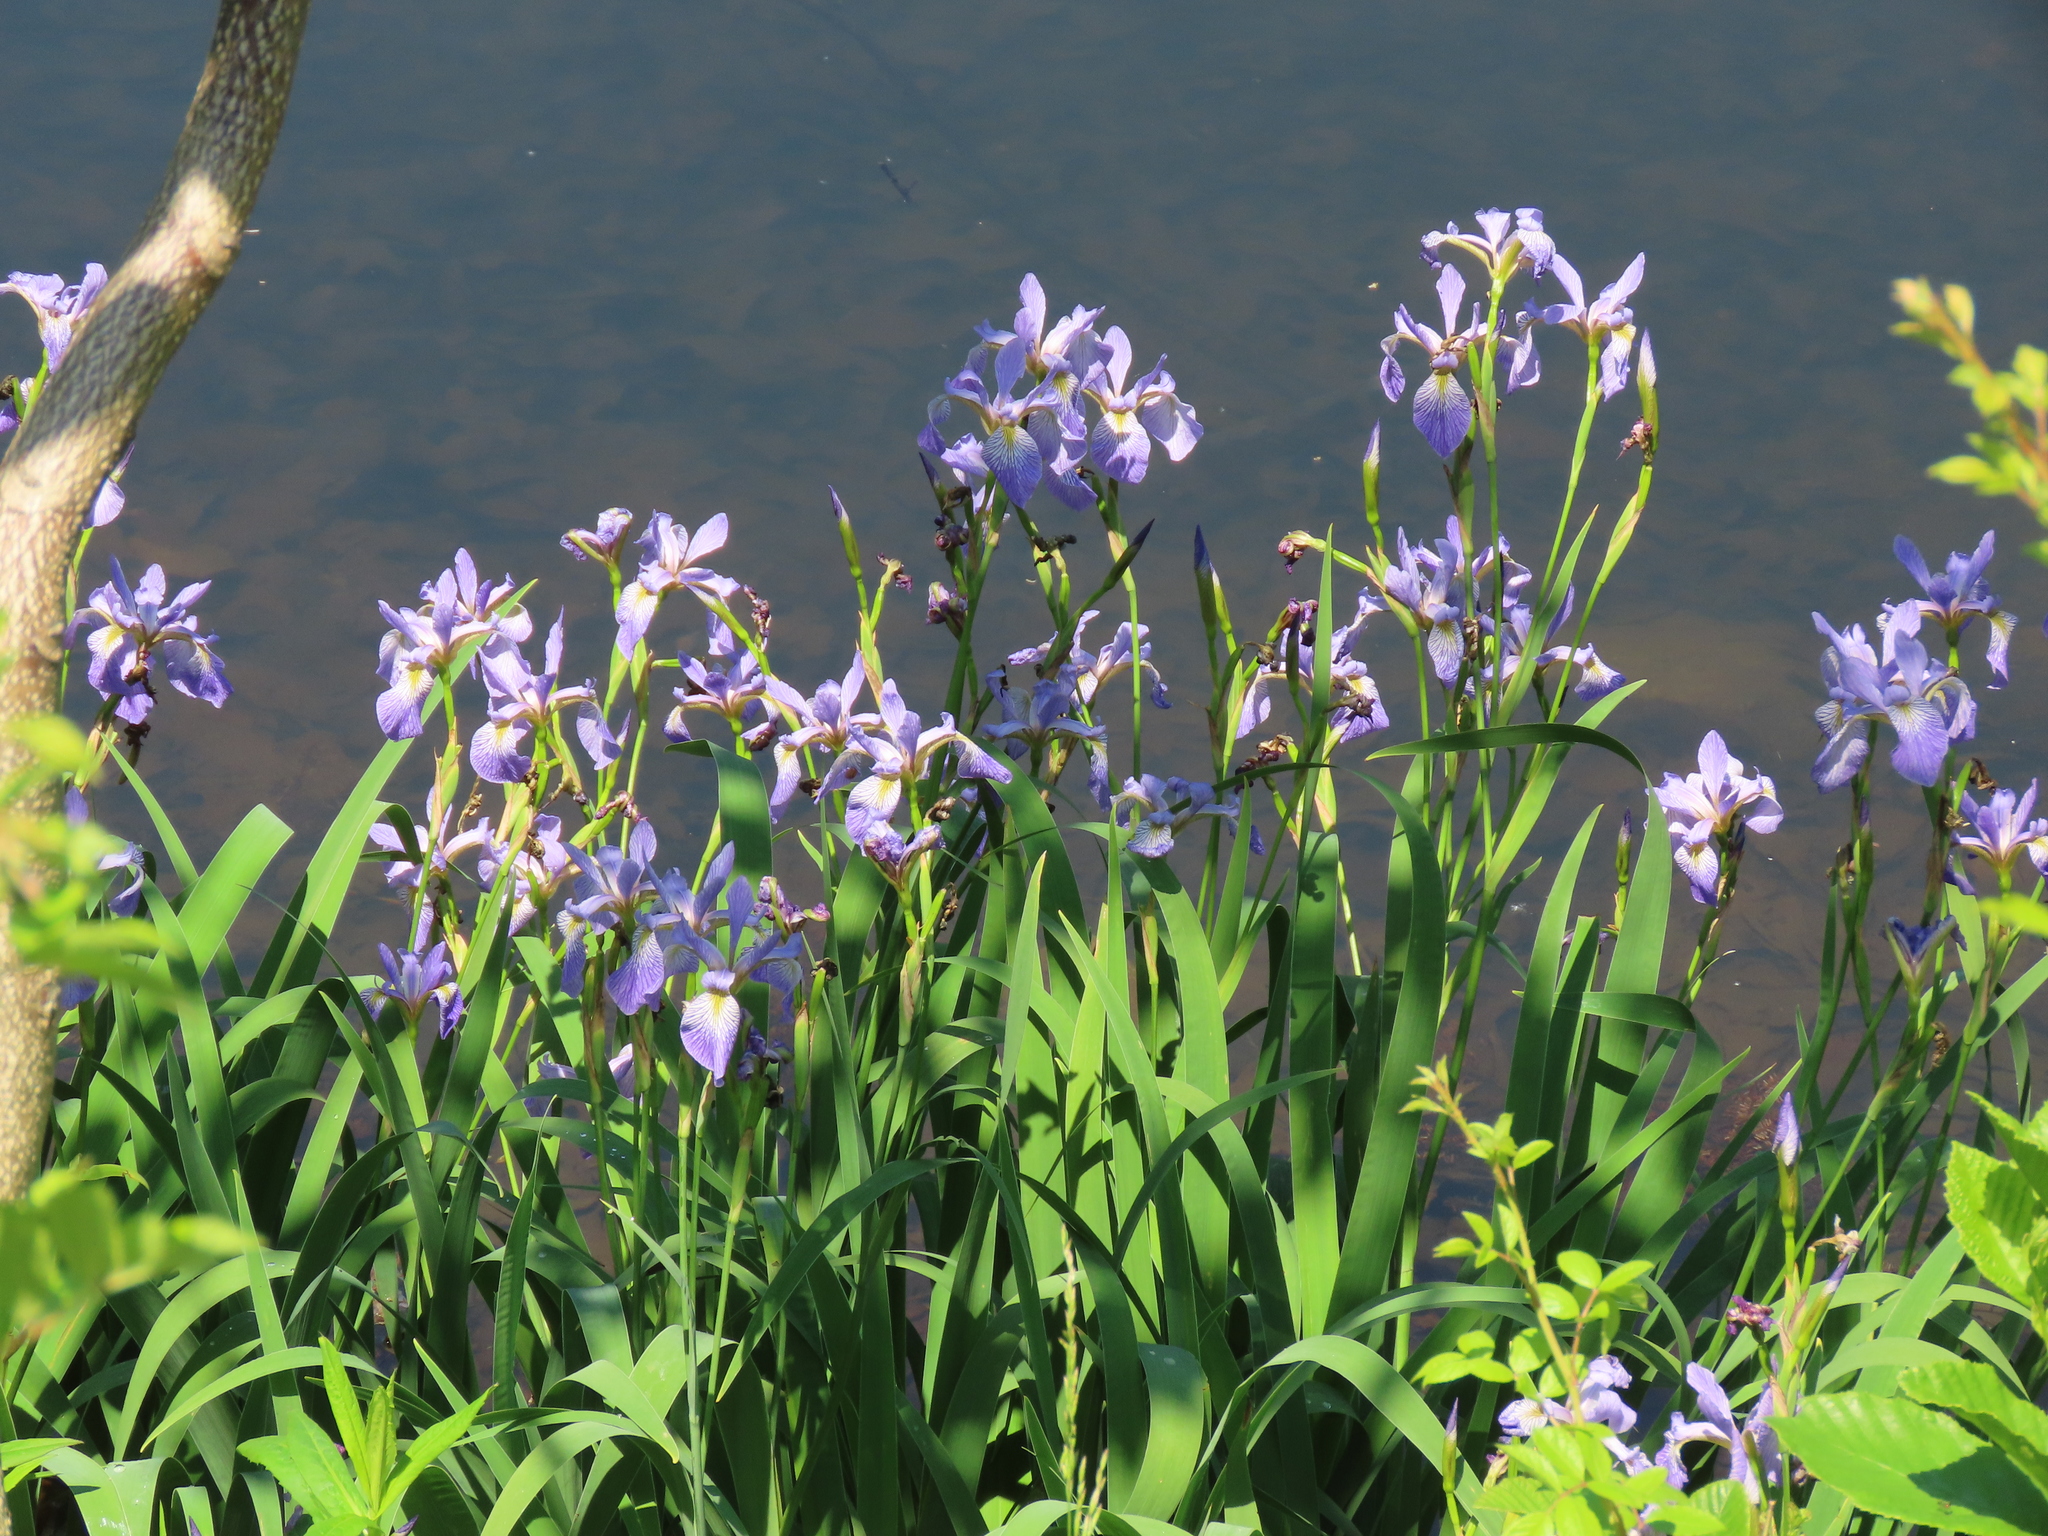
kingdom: Plantae
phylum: Tracheophyta
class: Liliopsida
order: Asparagales
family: Iridaceae
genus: Iris
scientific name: Iris versicolor
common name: Purple iris
